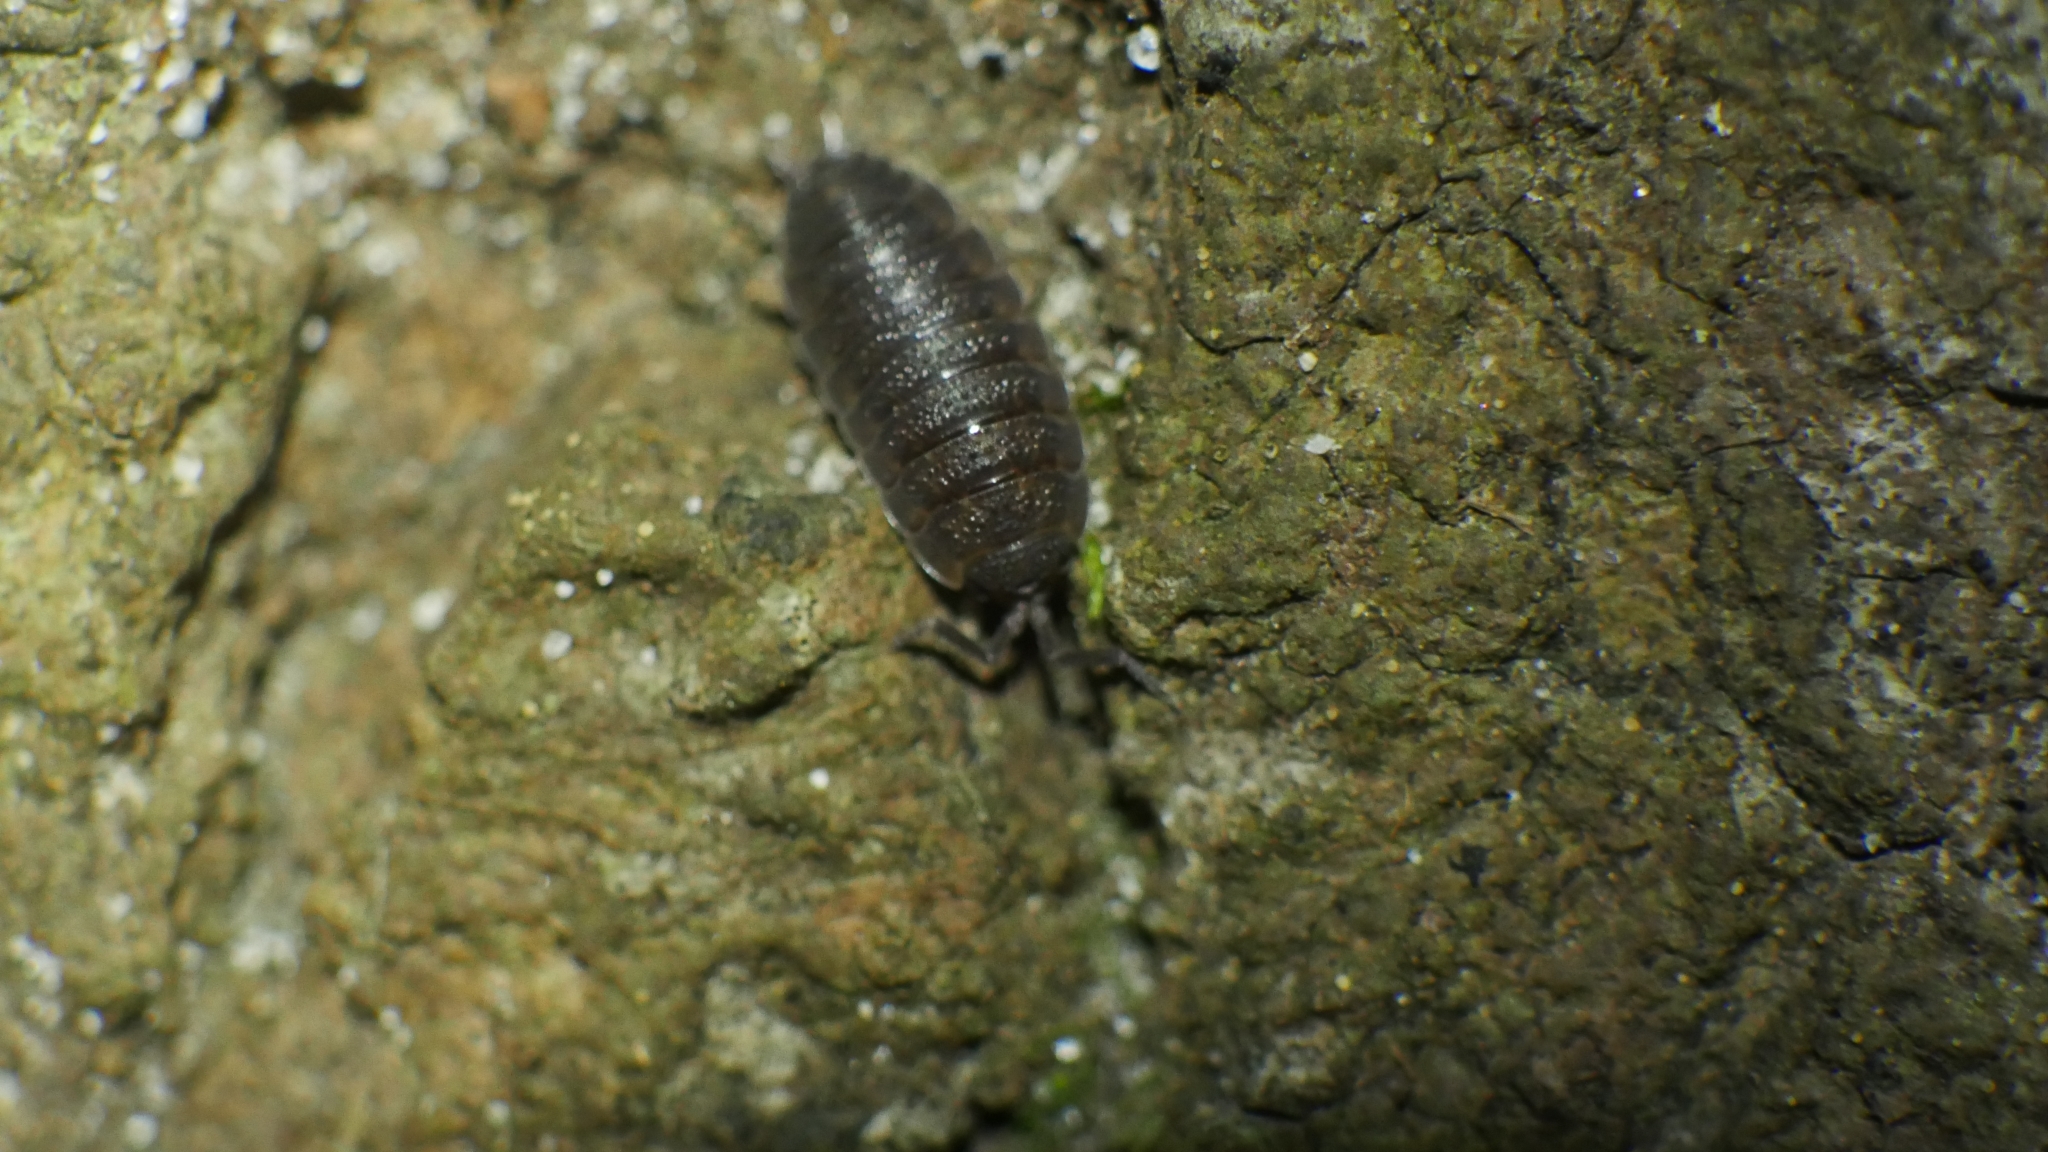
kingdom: Animalia
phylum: Arthropoda
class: Malacostraca
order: Isopoda
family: Porcellionidae
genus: Porcellio
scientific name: Porcellio scaber
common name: Common rough woodlouse
